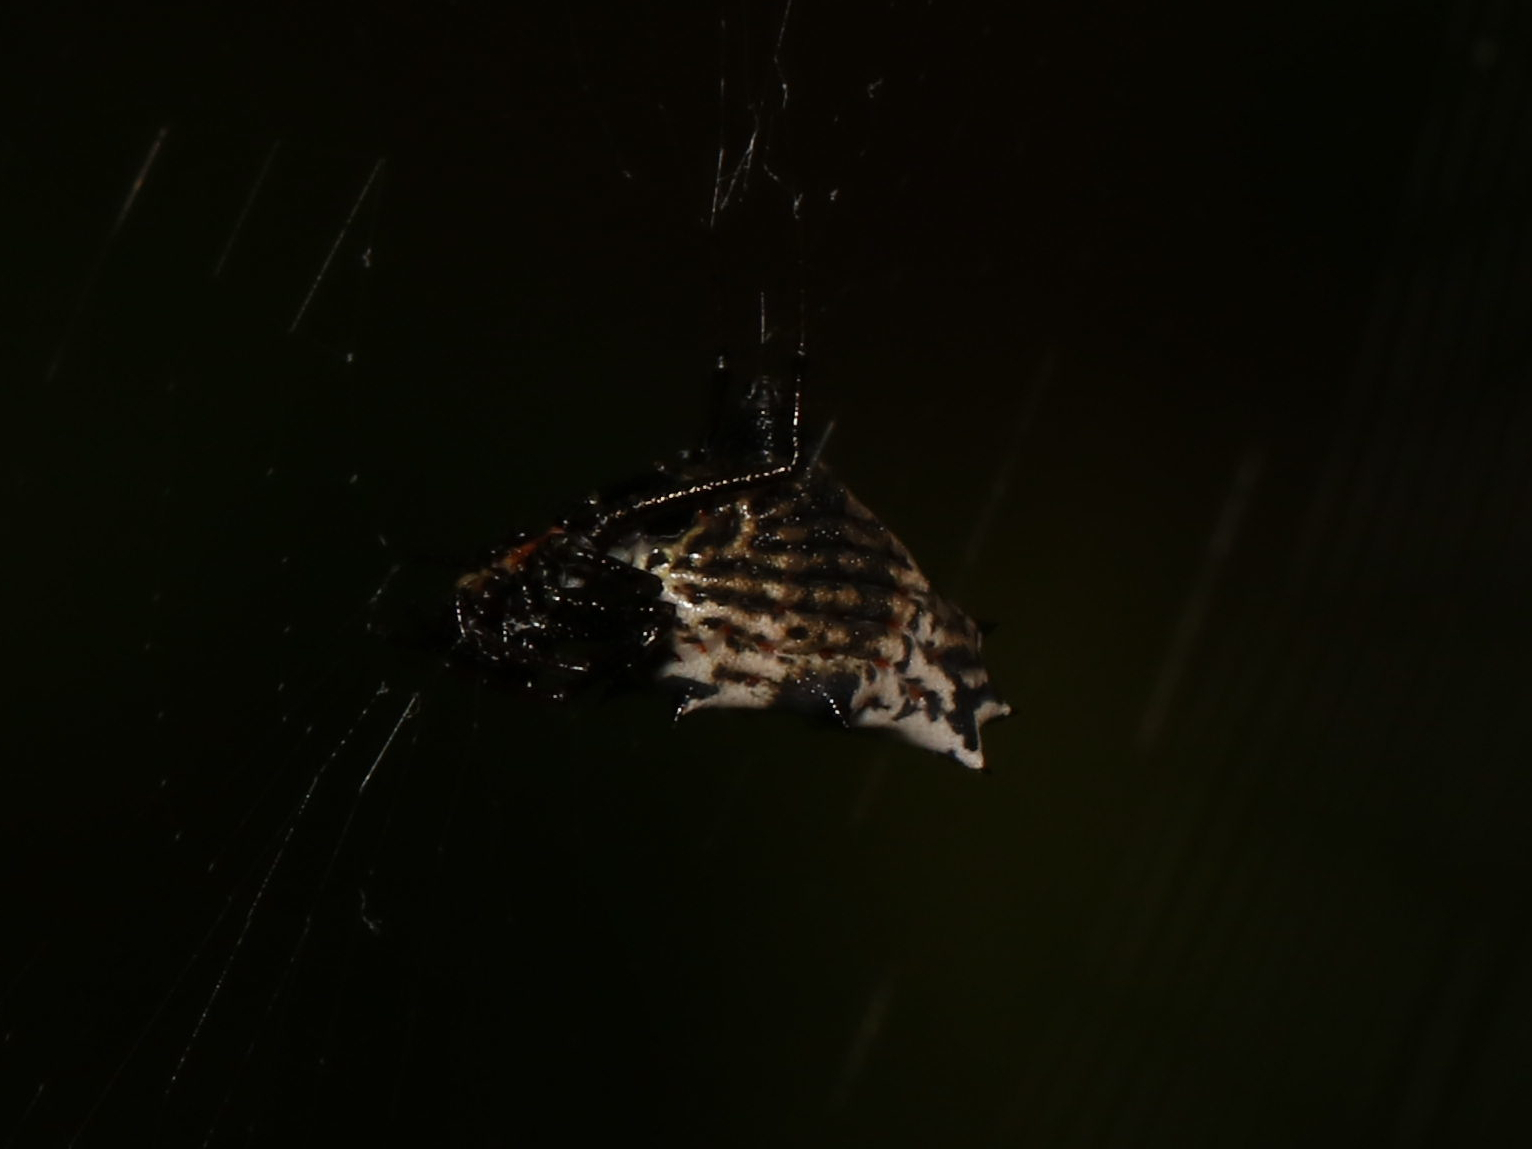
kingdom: Animalia
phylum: Arthropoda
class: Arachnida
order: Araneae
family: Araneidae
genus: Micrathena
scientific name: Micrathena gracilis
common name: Orb weavers
